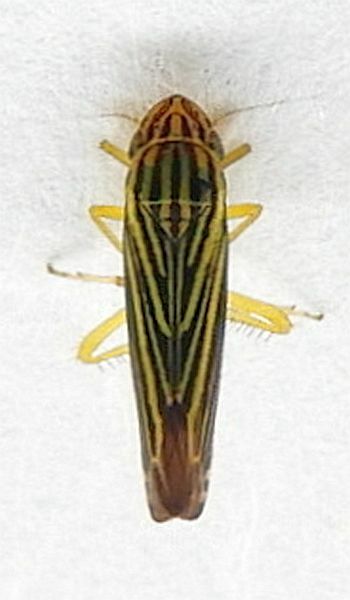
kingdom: Animalia
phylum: Arthropoda
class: Insecta
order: Hemiptera
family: Cicadellidae
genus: Sibovia
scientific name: Sibovia compta
